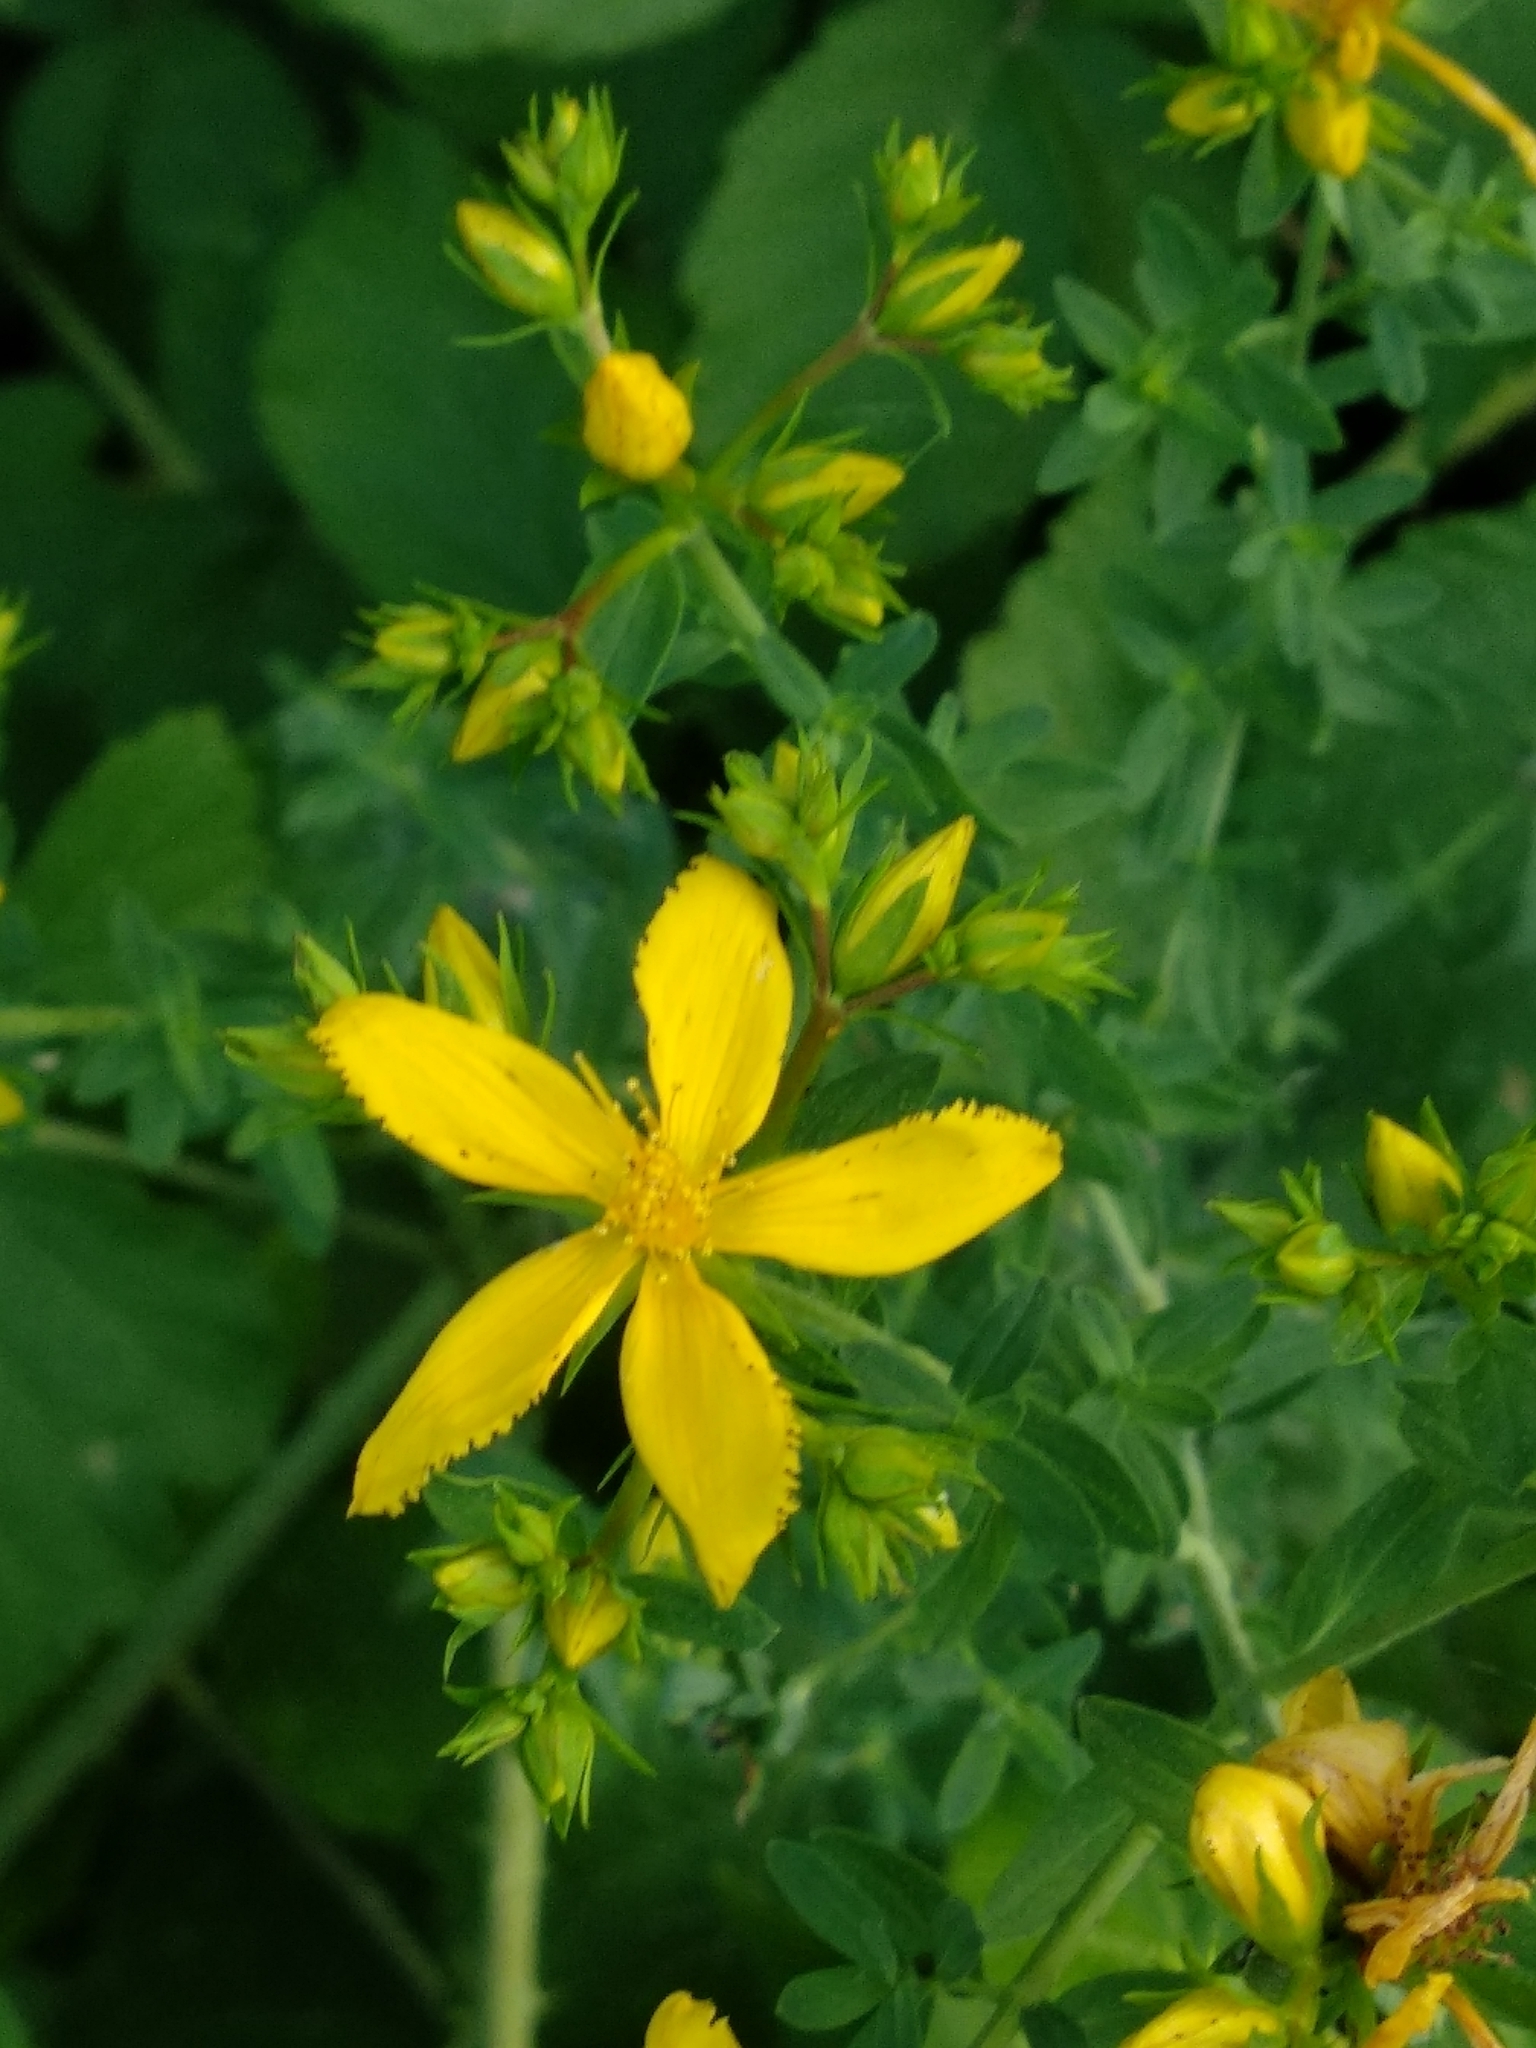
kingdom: Plantae
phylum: Tracheophyta
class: Magnoliopsida
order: Malpighiales
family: Hypericaceae
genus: Hypericum
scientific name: Hypericum perforatum
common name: Common st. johnswort
